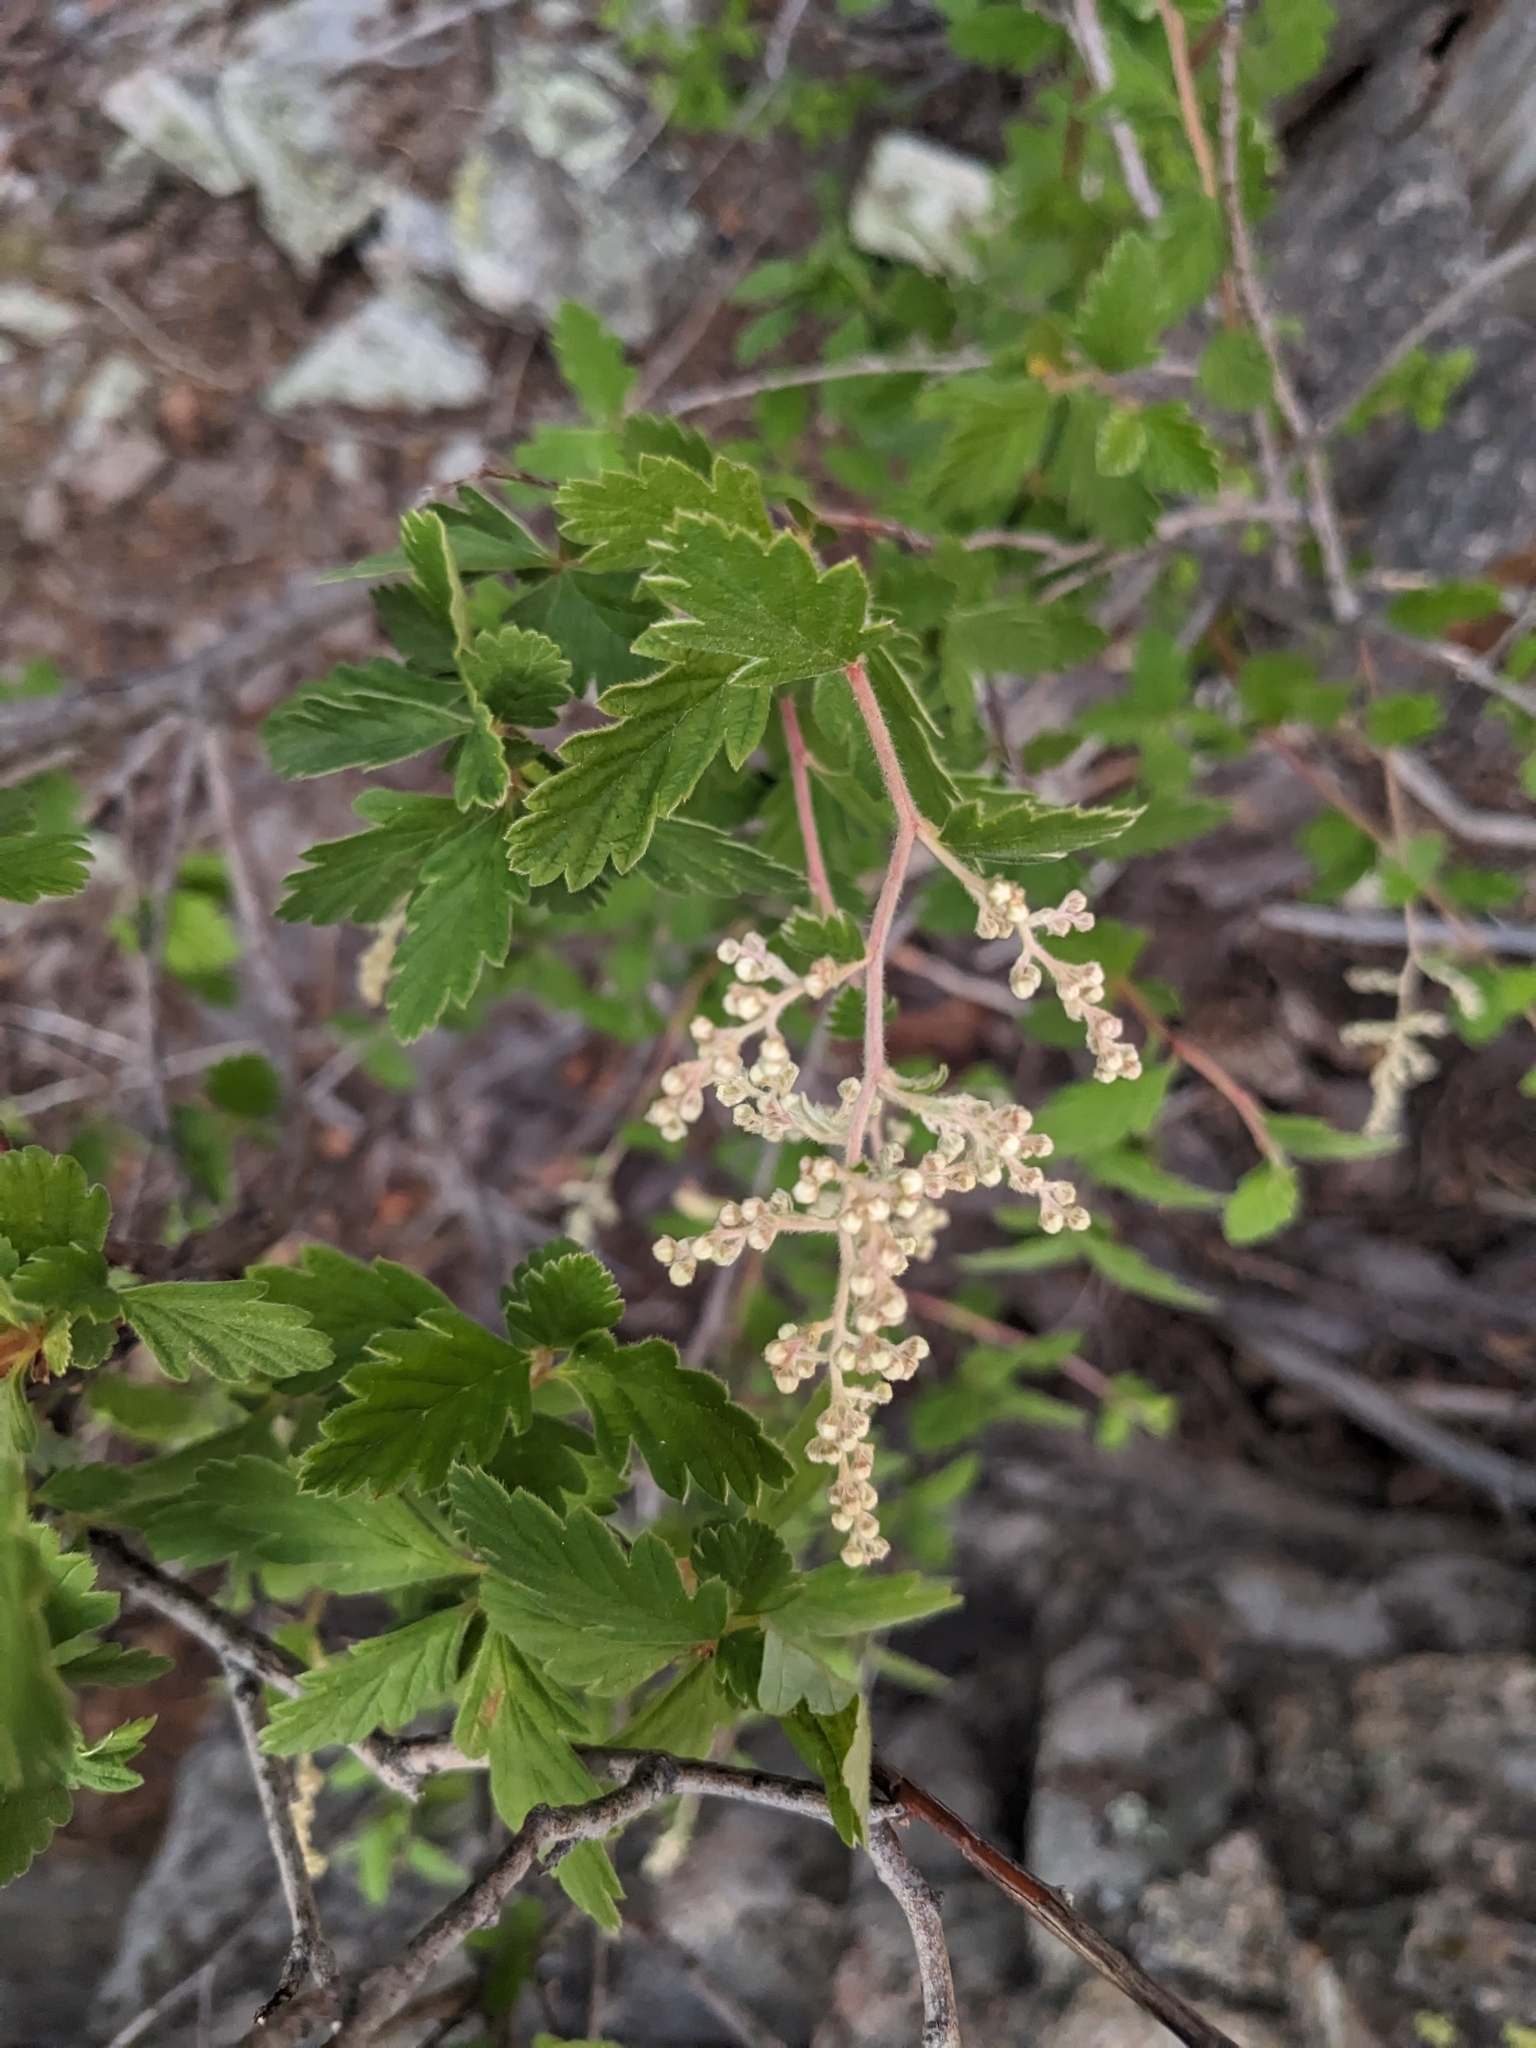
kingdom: Plantae
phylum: Tracheophyta
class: Magnoliopsida
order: Rosales
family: Rosaceae
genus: Holodiscus
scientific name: Holodiscus discolor
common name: Oceanspray
